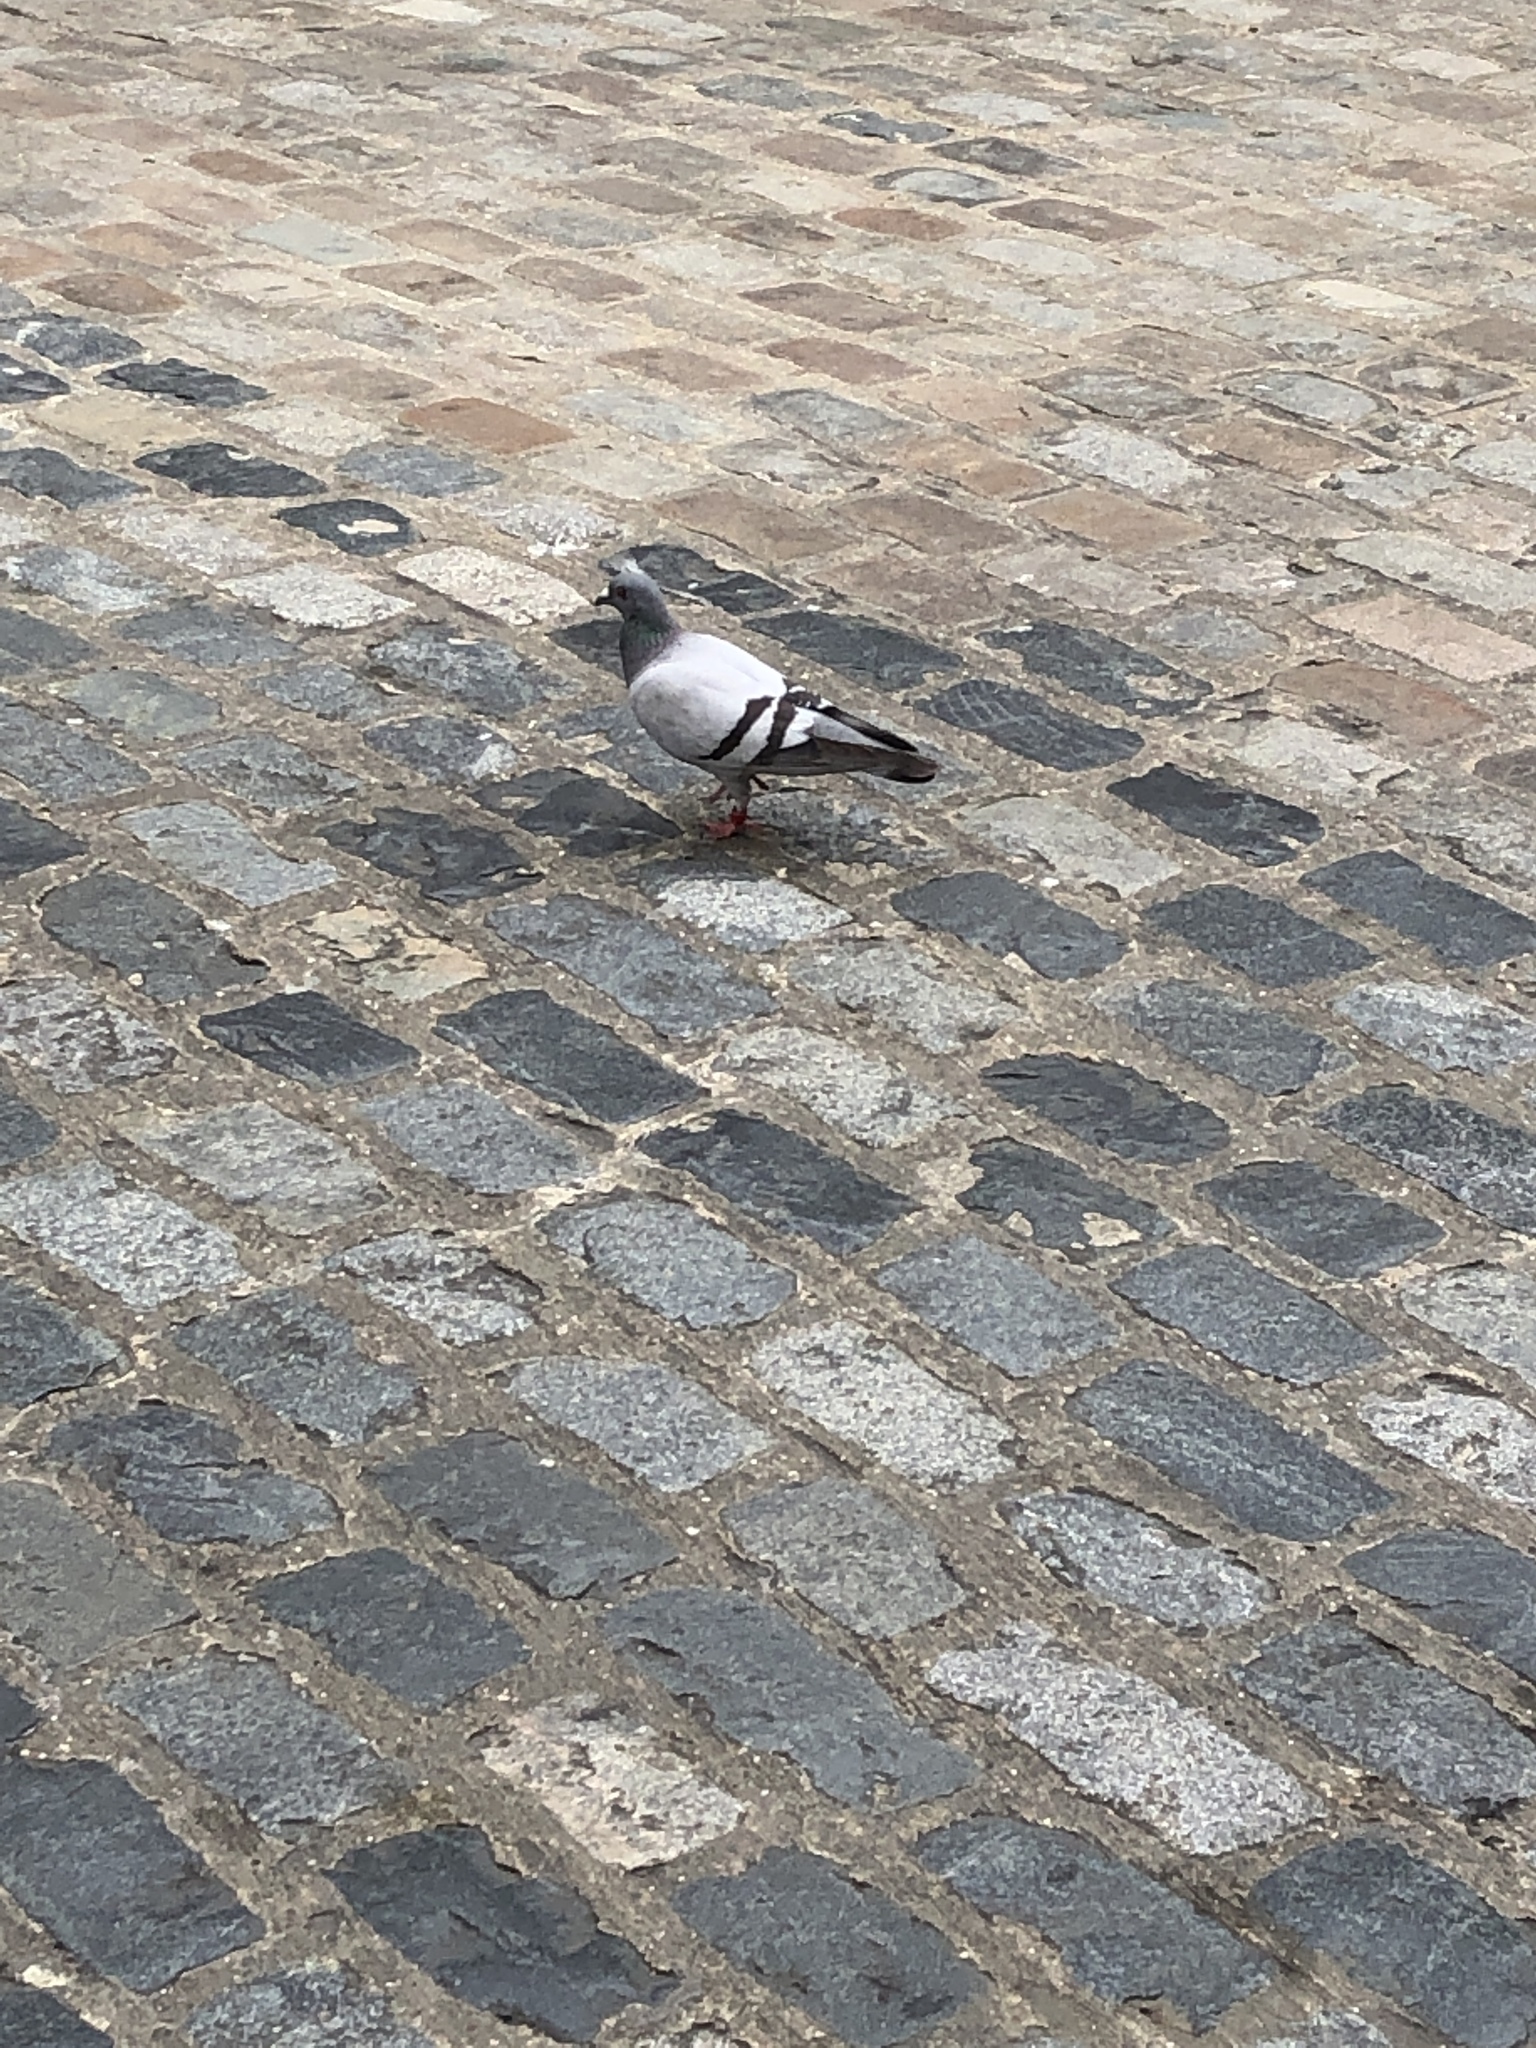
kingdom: Animalia
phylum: Chordata
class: Aves
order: Columbiformes
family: Columbidae
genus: Columba
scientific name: Columba livia
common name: Rock pigeon
